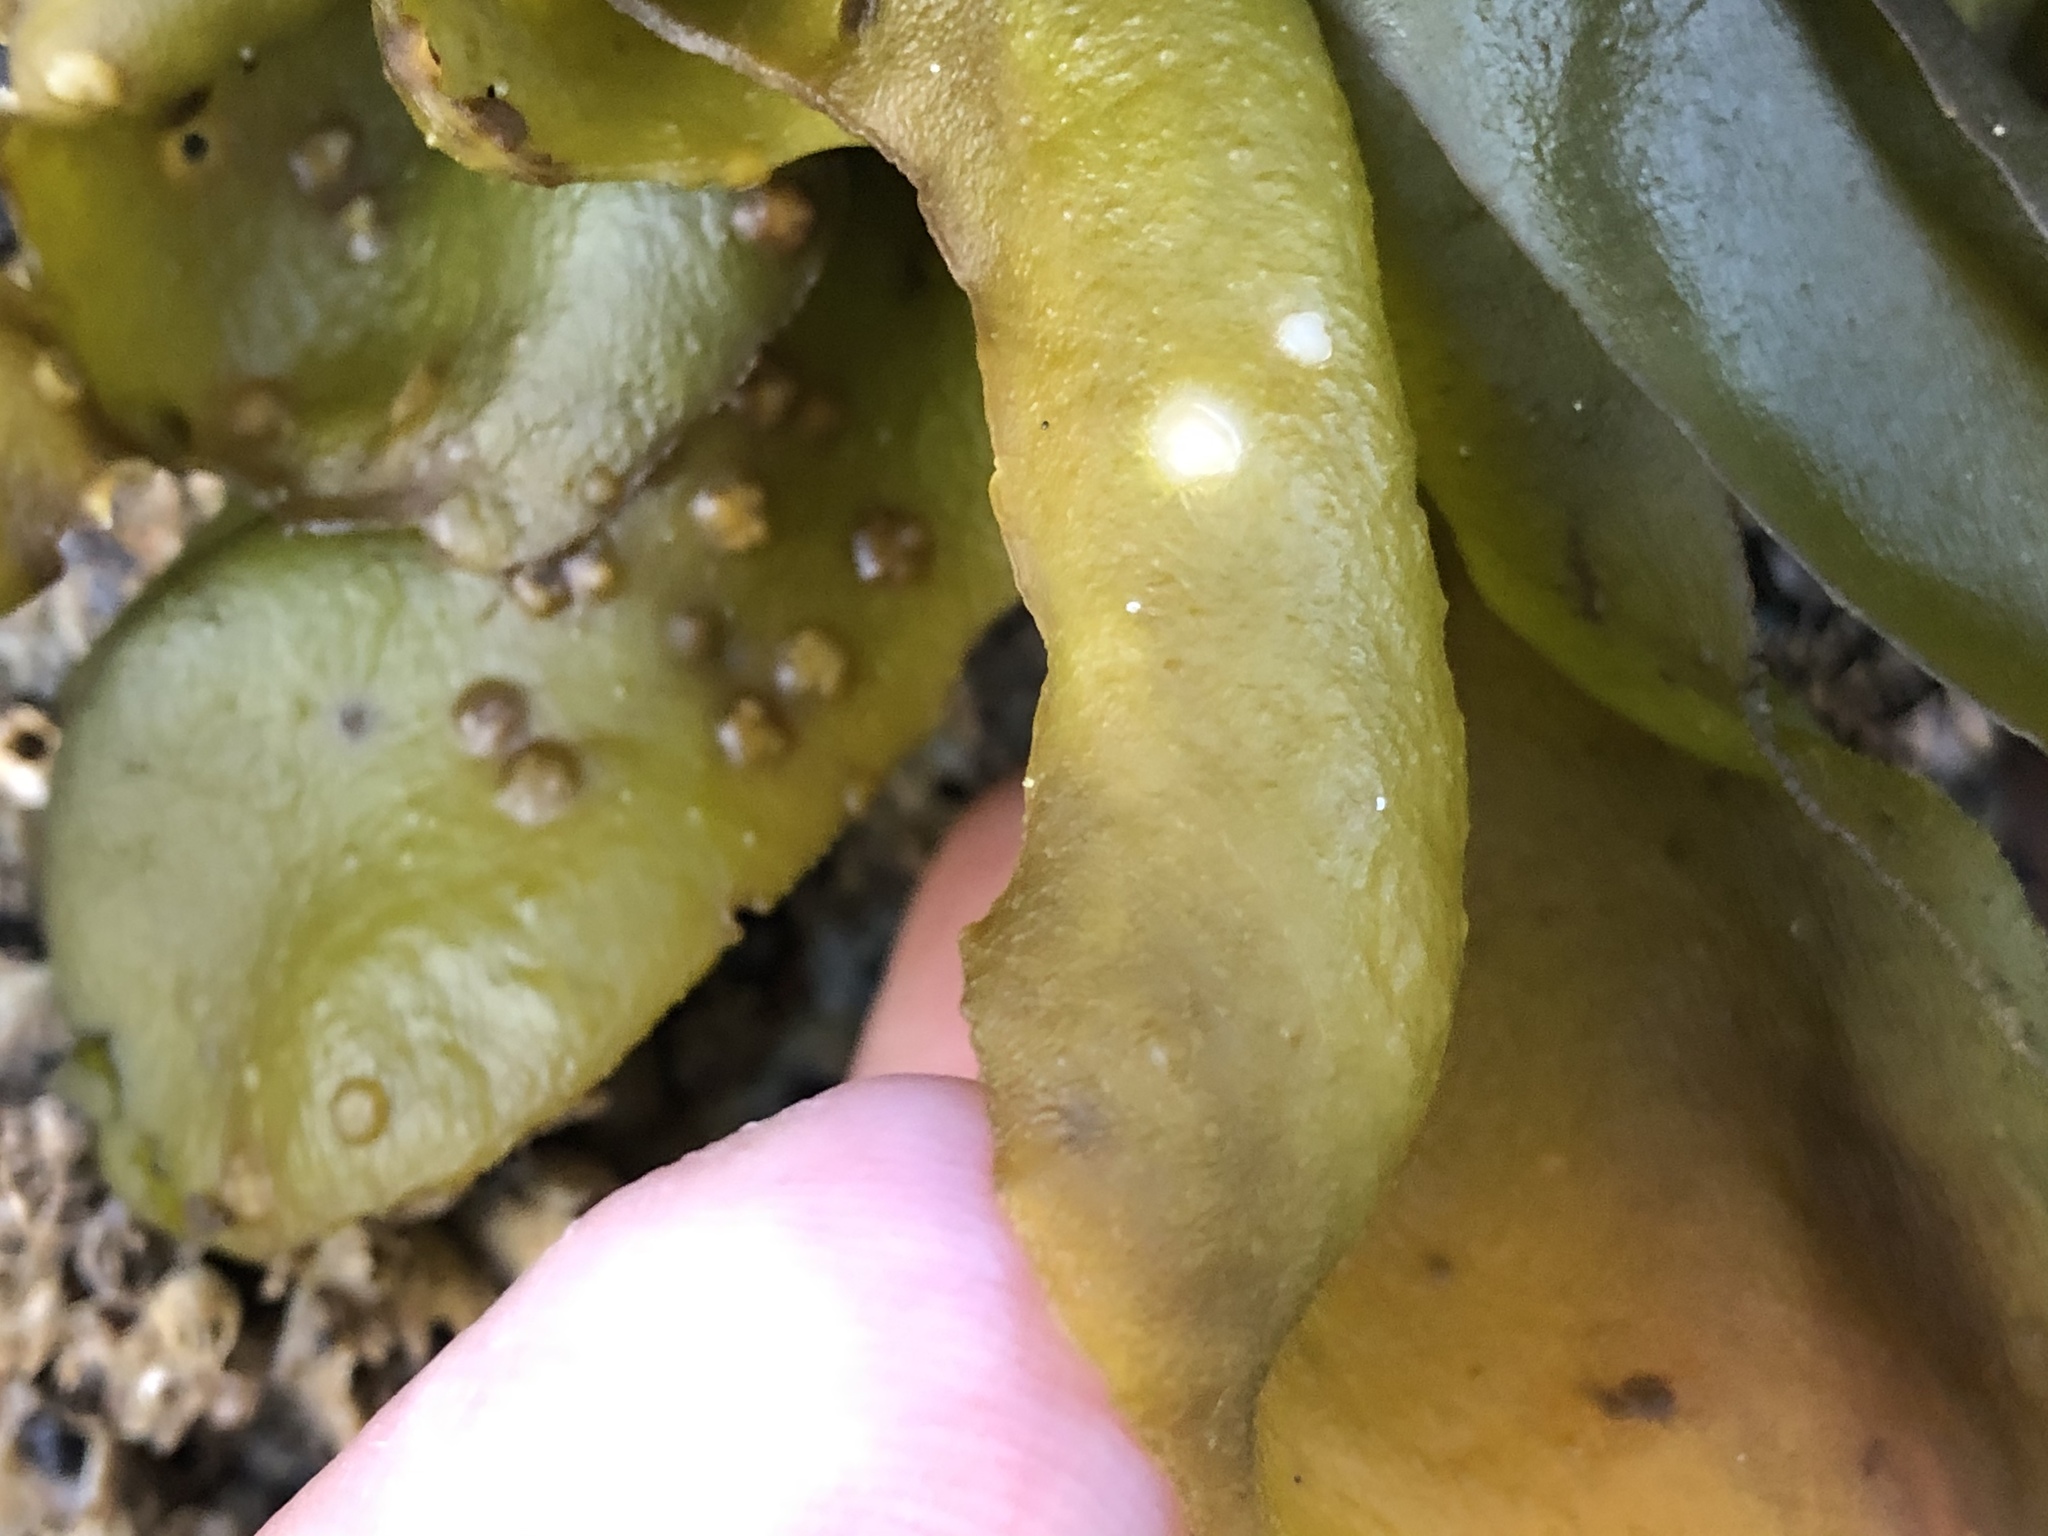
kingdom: Plantae
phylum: Rhodophyta
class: Florideophyceae
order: Gigartinales
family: Gigartinaceae
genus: Mazzaella
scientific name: Mazzaella flaccida
